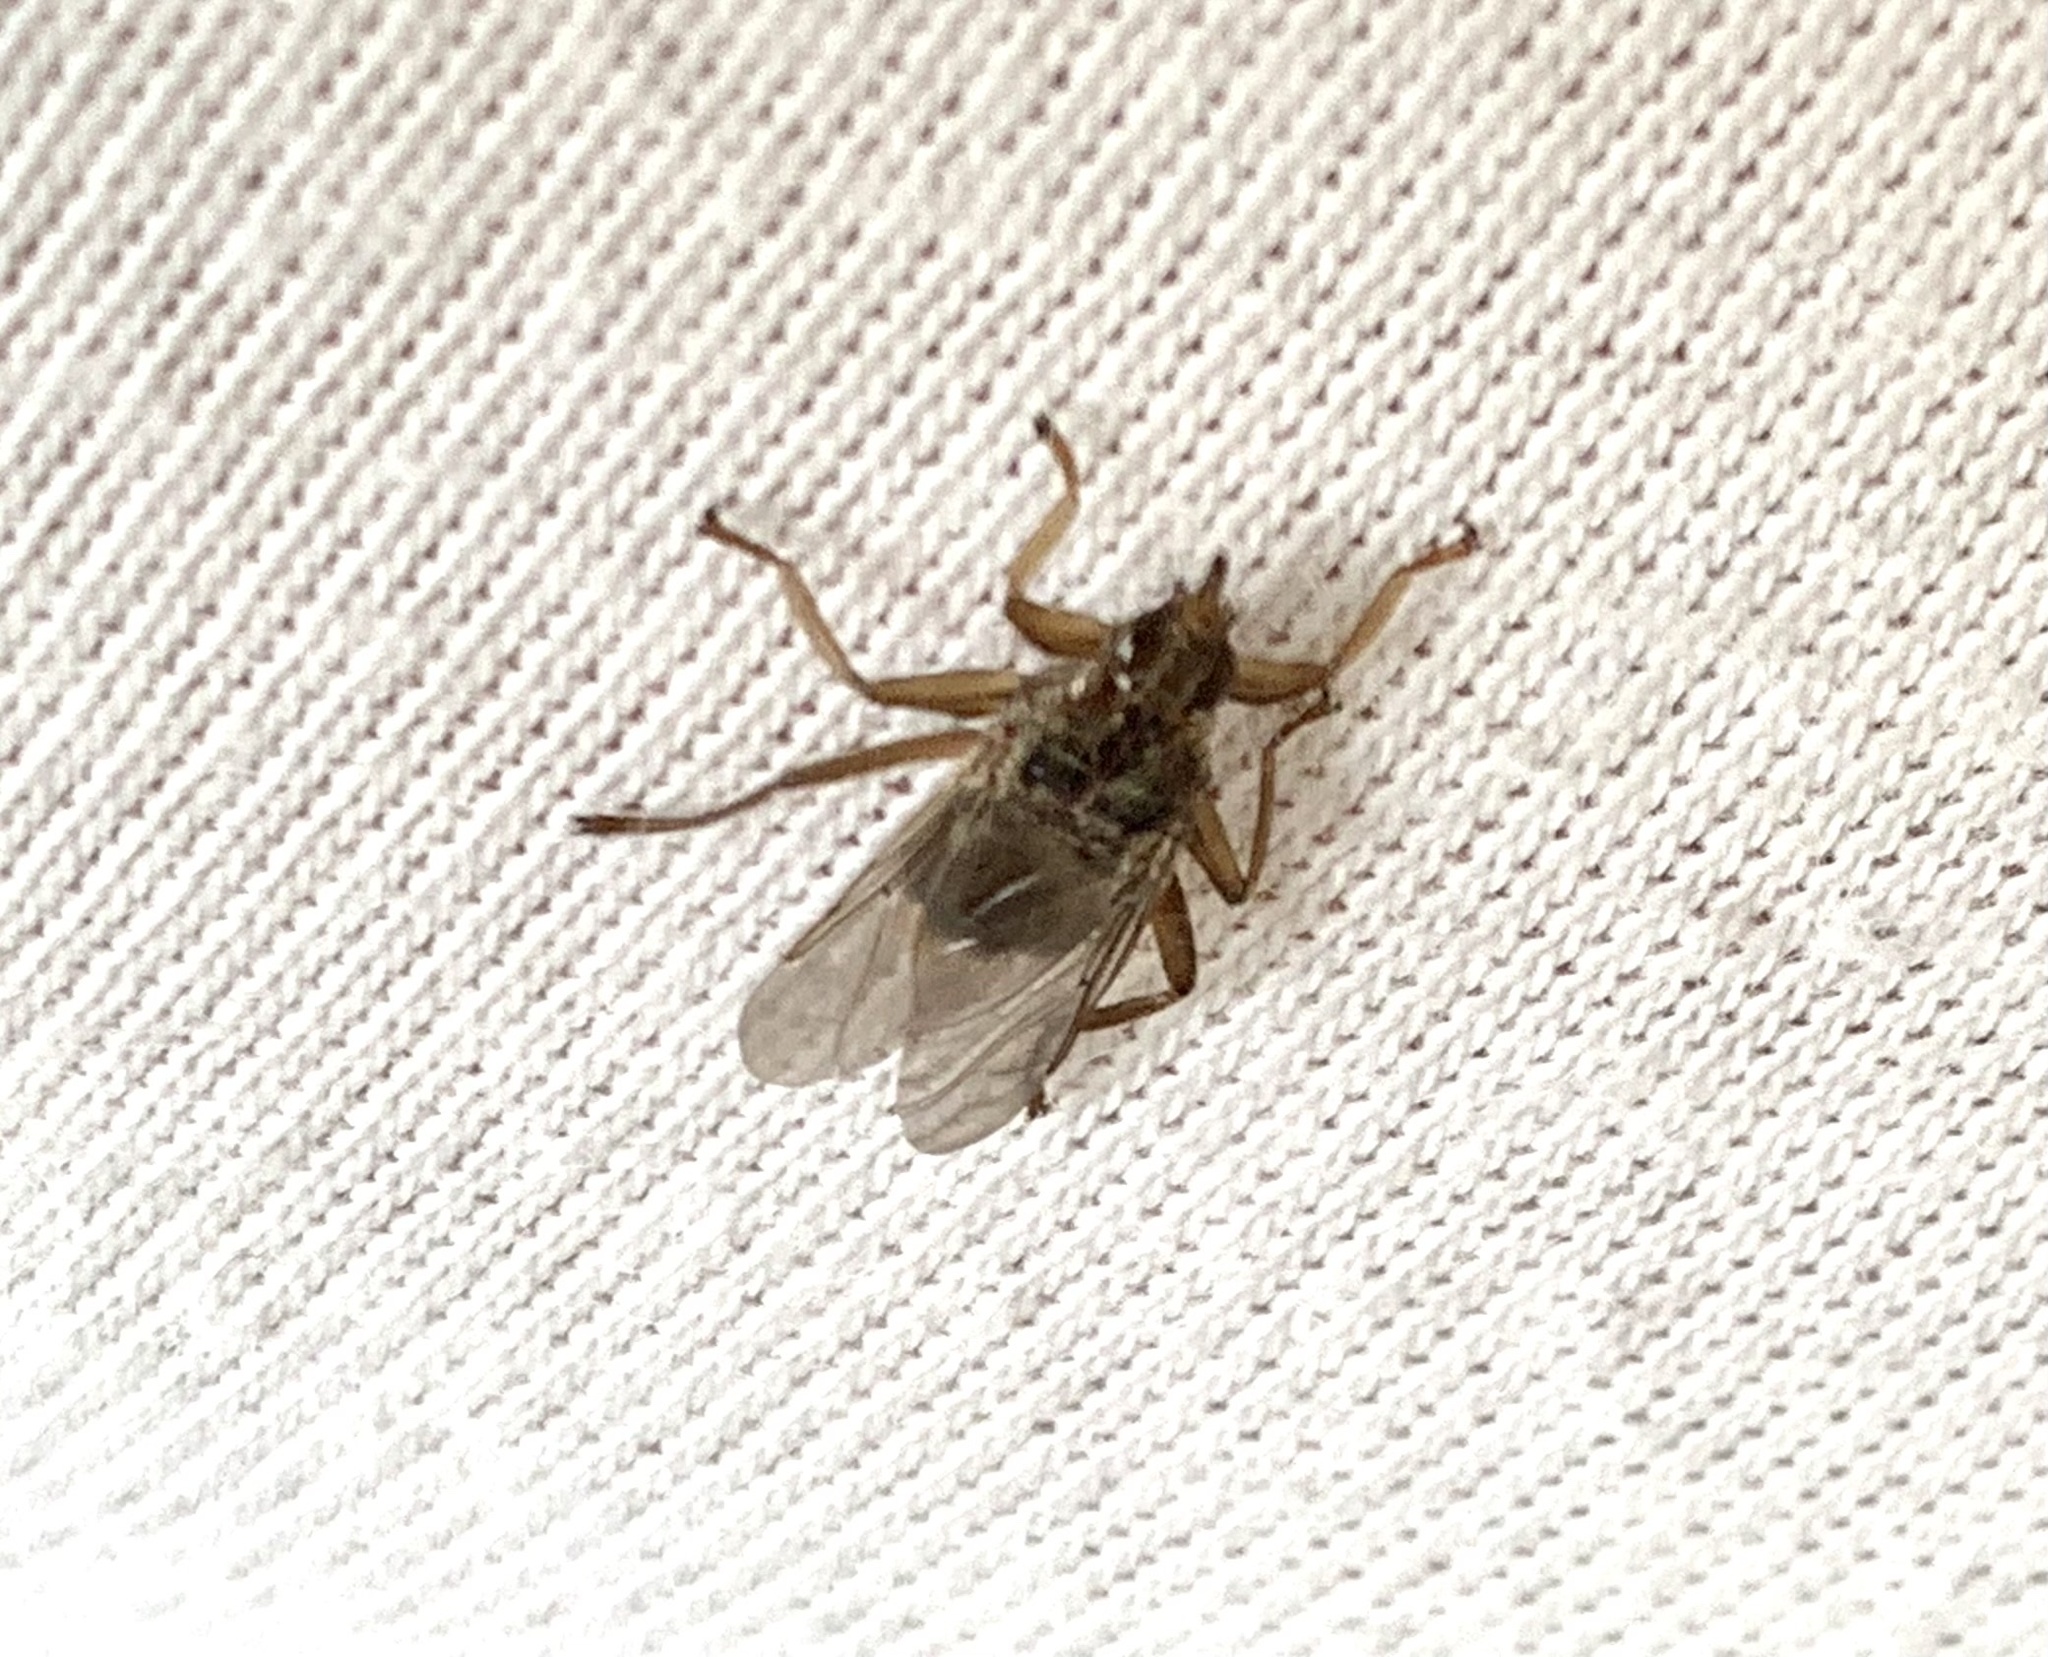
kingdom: Animalia
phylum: Arthropoda
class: Insecta
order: Diptera
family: Hippoboscidae
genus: Pseudolynchia
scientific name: Pseudolynchia canariensis
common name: Louse fly
